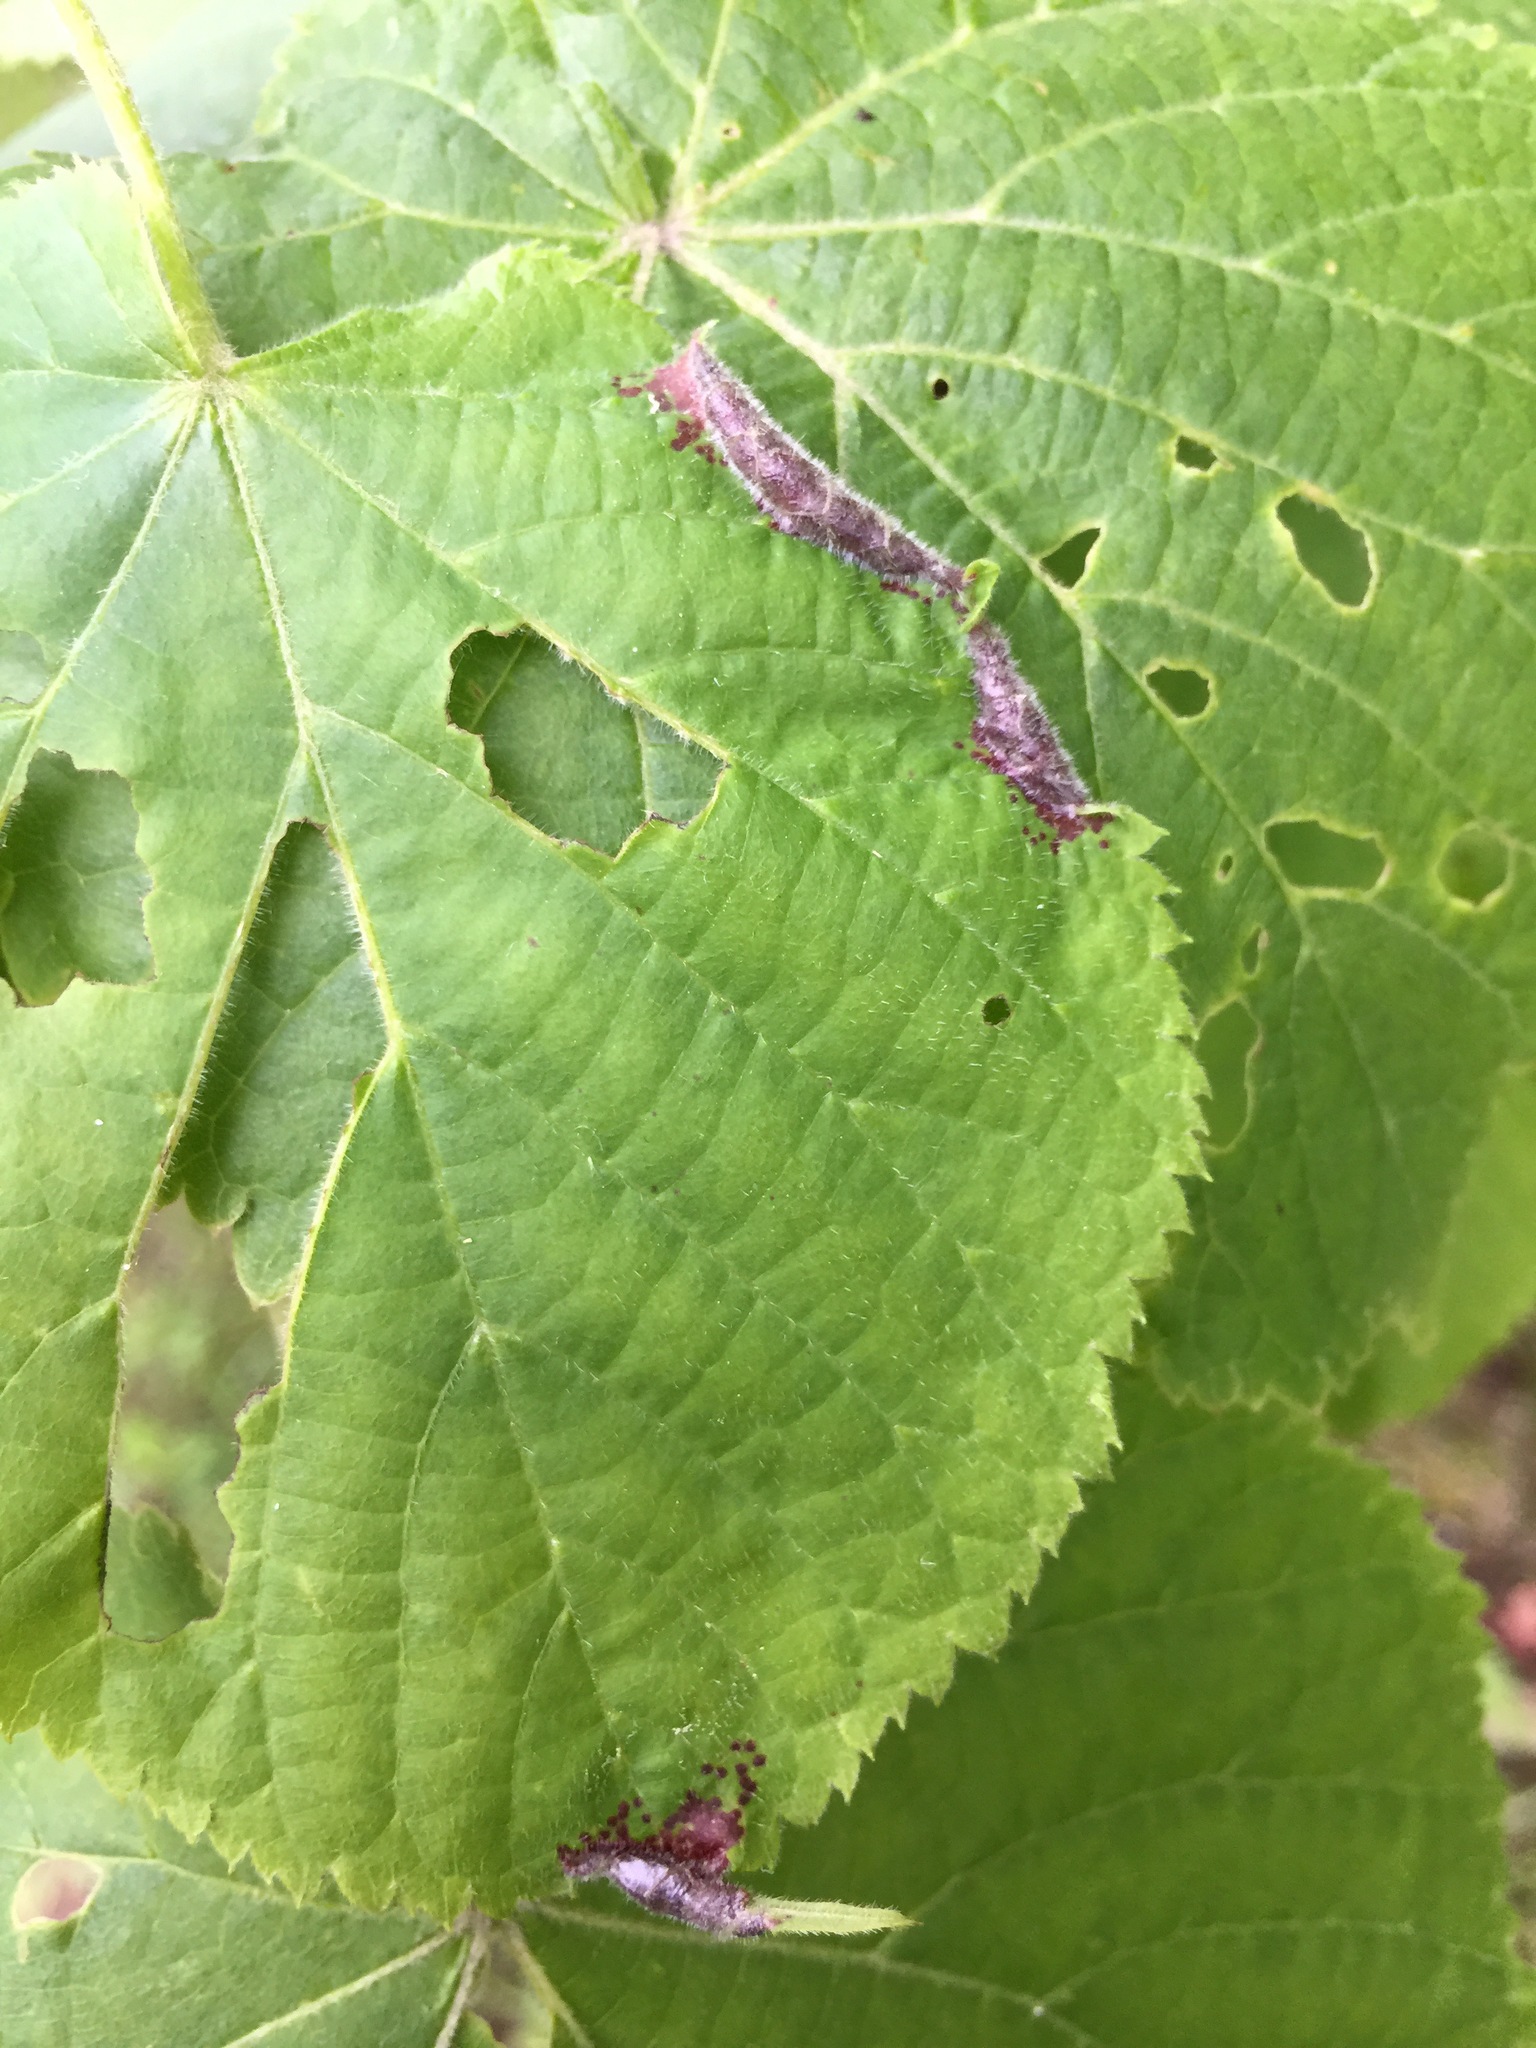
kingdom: Animalia
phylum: Arthropoda
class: Insecta
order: Diptera
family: Cecidomyiidae
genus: Dasineura
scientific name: Dasineura tiliae
